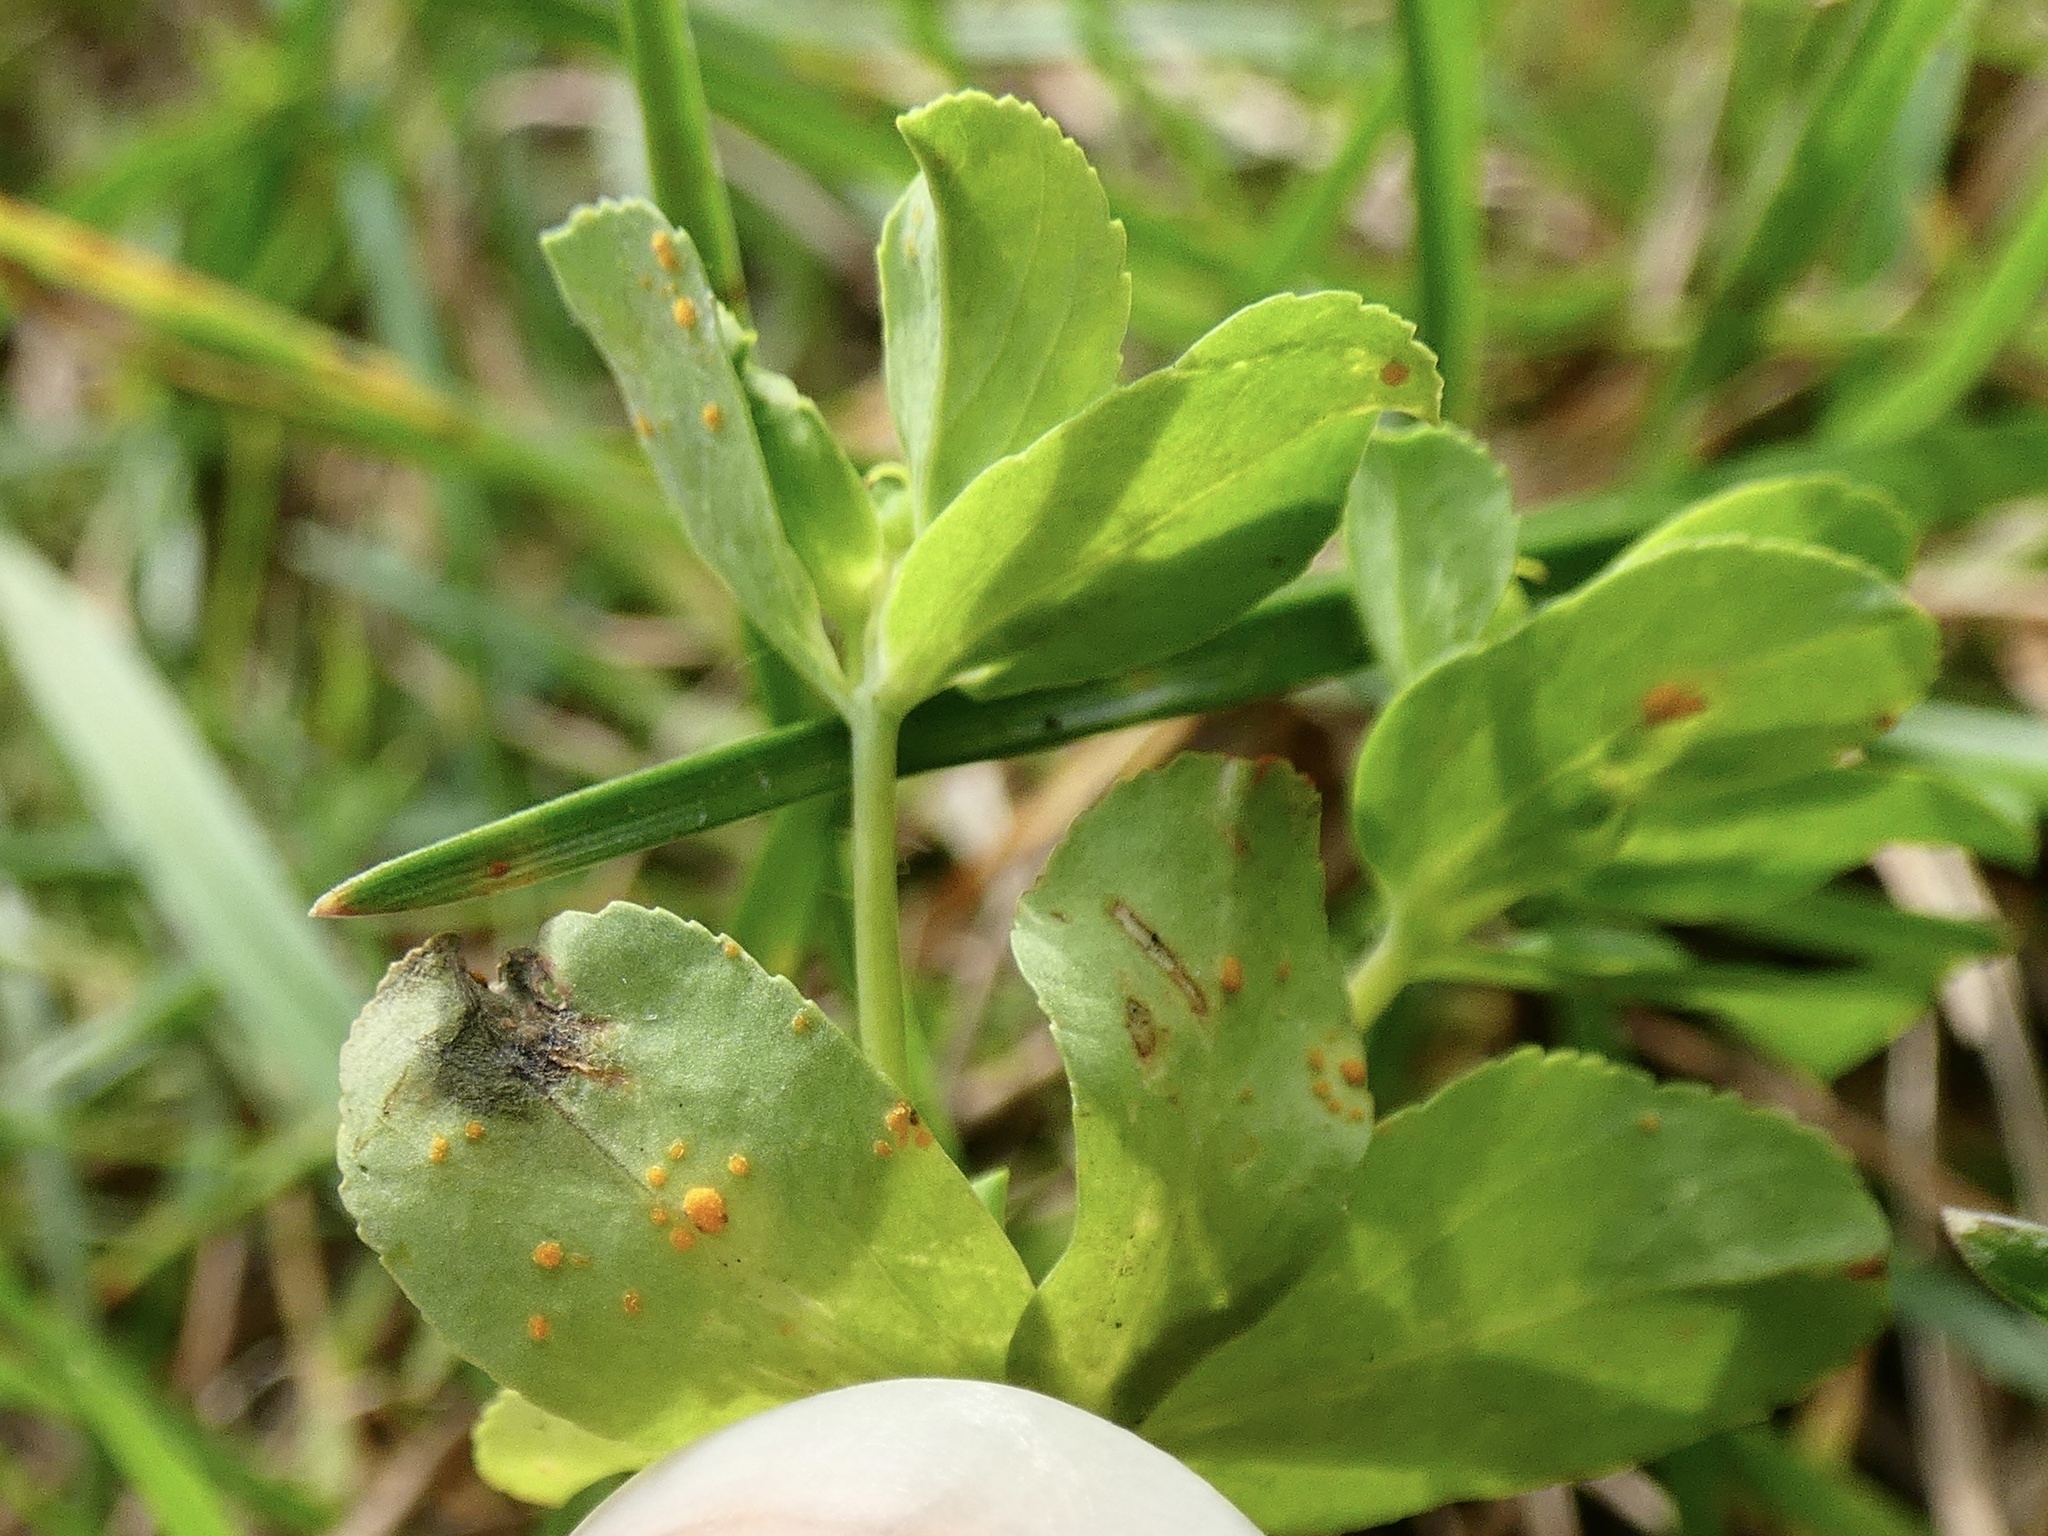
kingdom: Fungi
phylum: Basidiomycota
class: Pucciniomycetes
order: Pucciniales
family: Melampsoraceae
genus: Melampsora
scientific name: Melampsora euphorbiae
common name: Spurge rust
